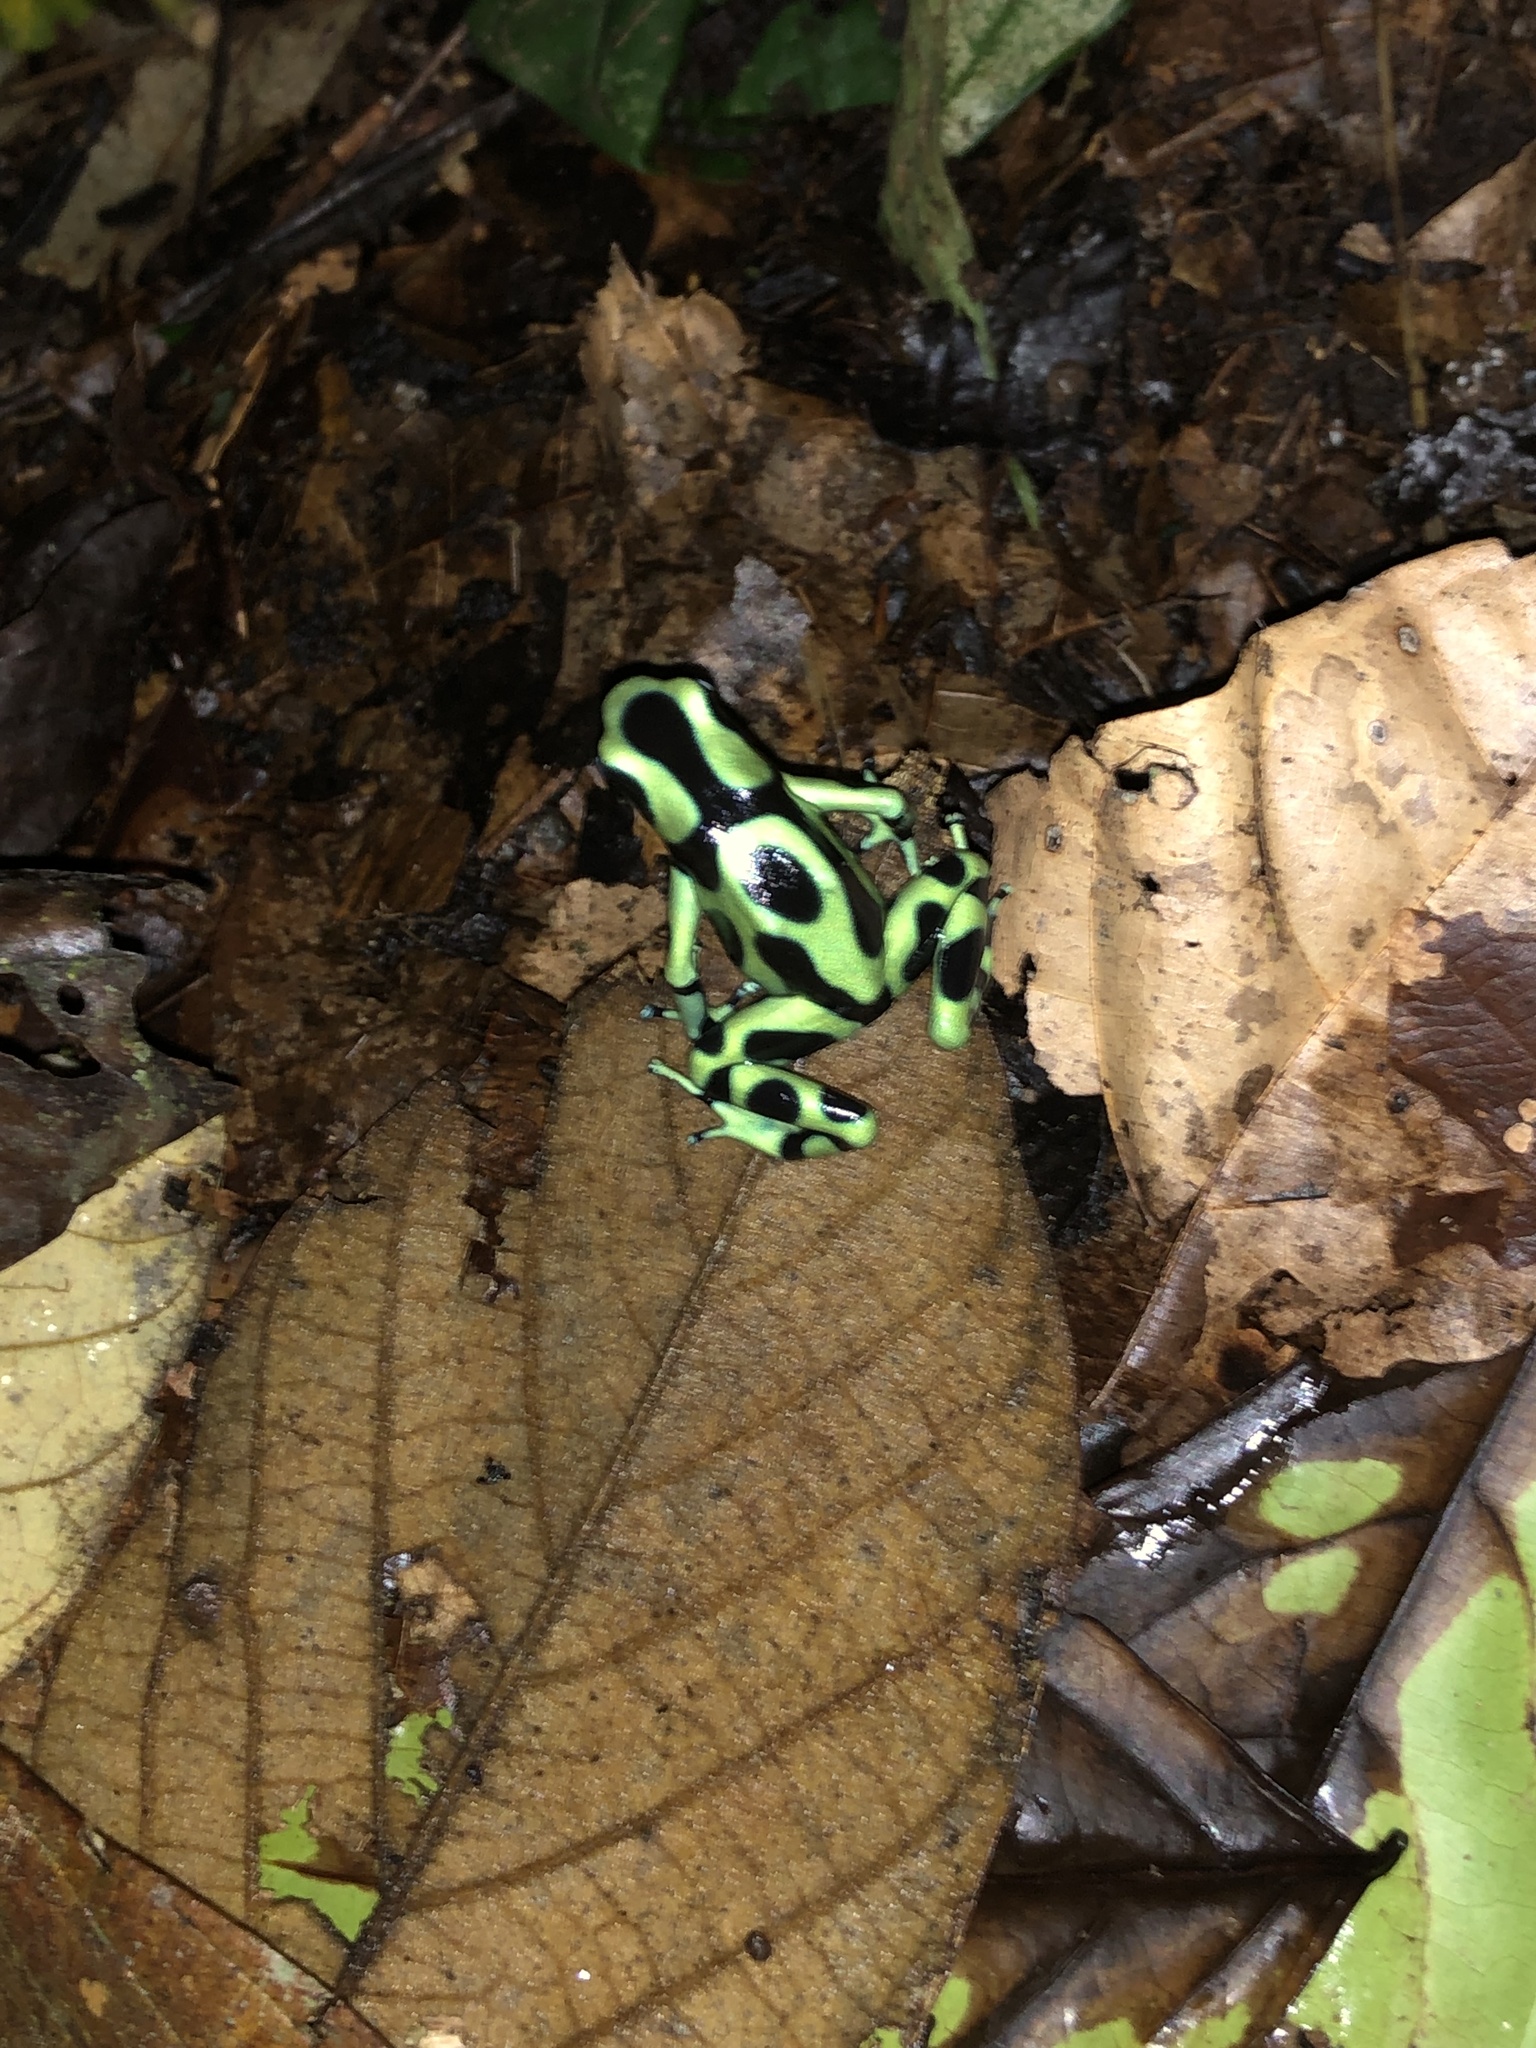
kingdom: Animalia
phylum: Chordata
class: Amphibia
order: Anura
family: Dendrobatidae
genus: Dendrobates
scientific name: Dendrobates auratus
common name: Green and black poison dart frog
